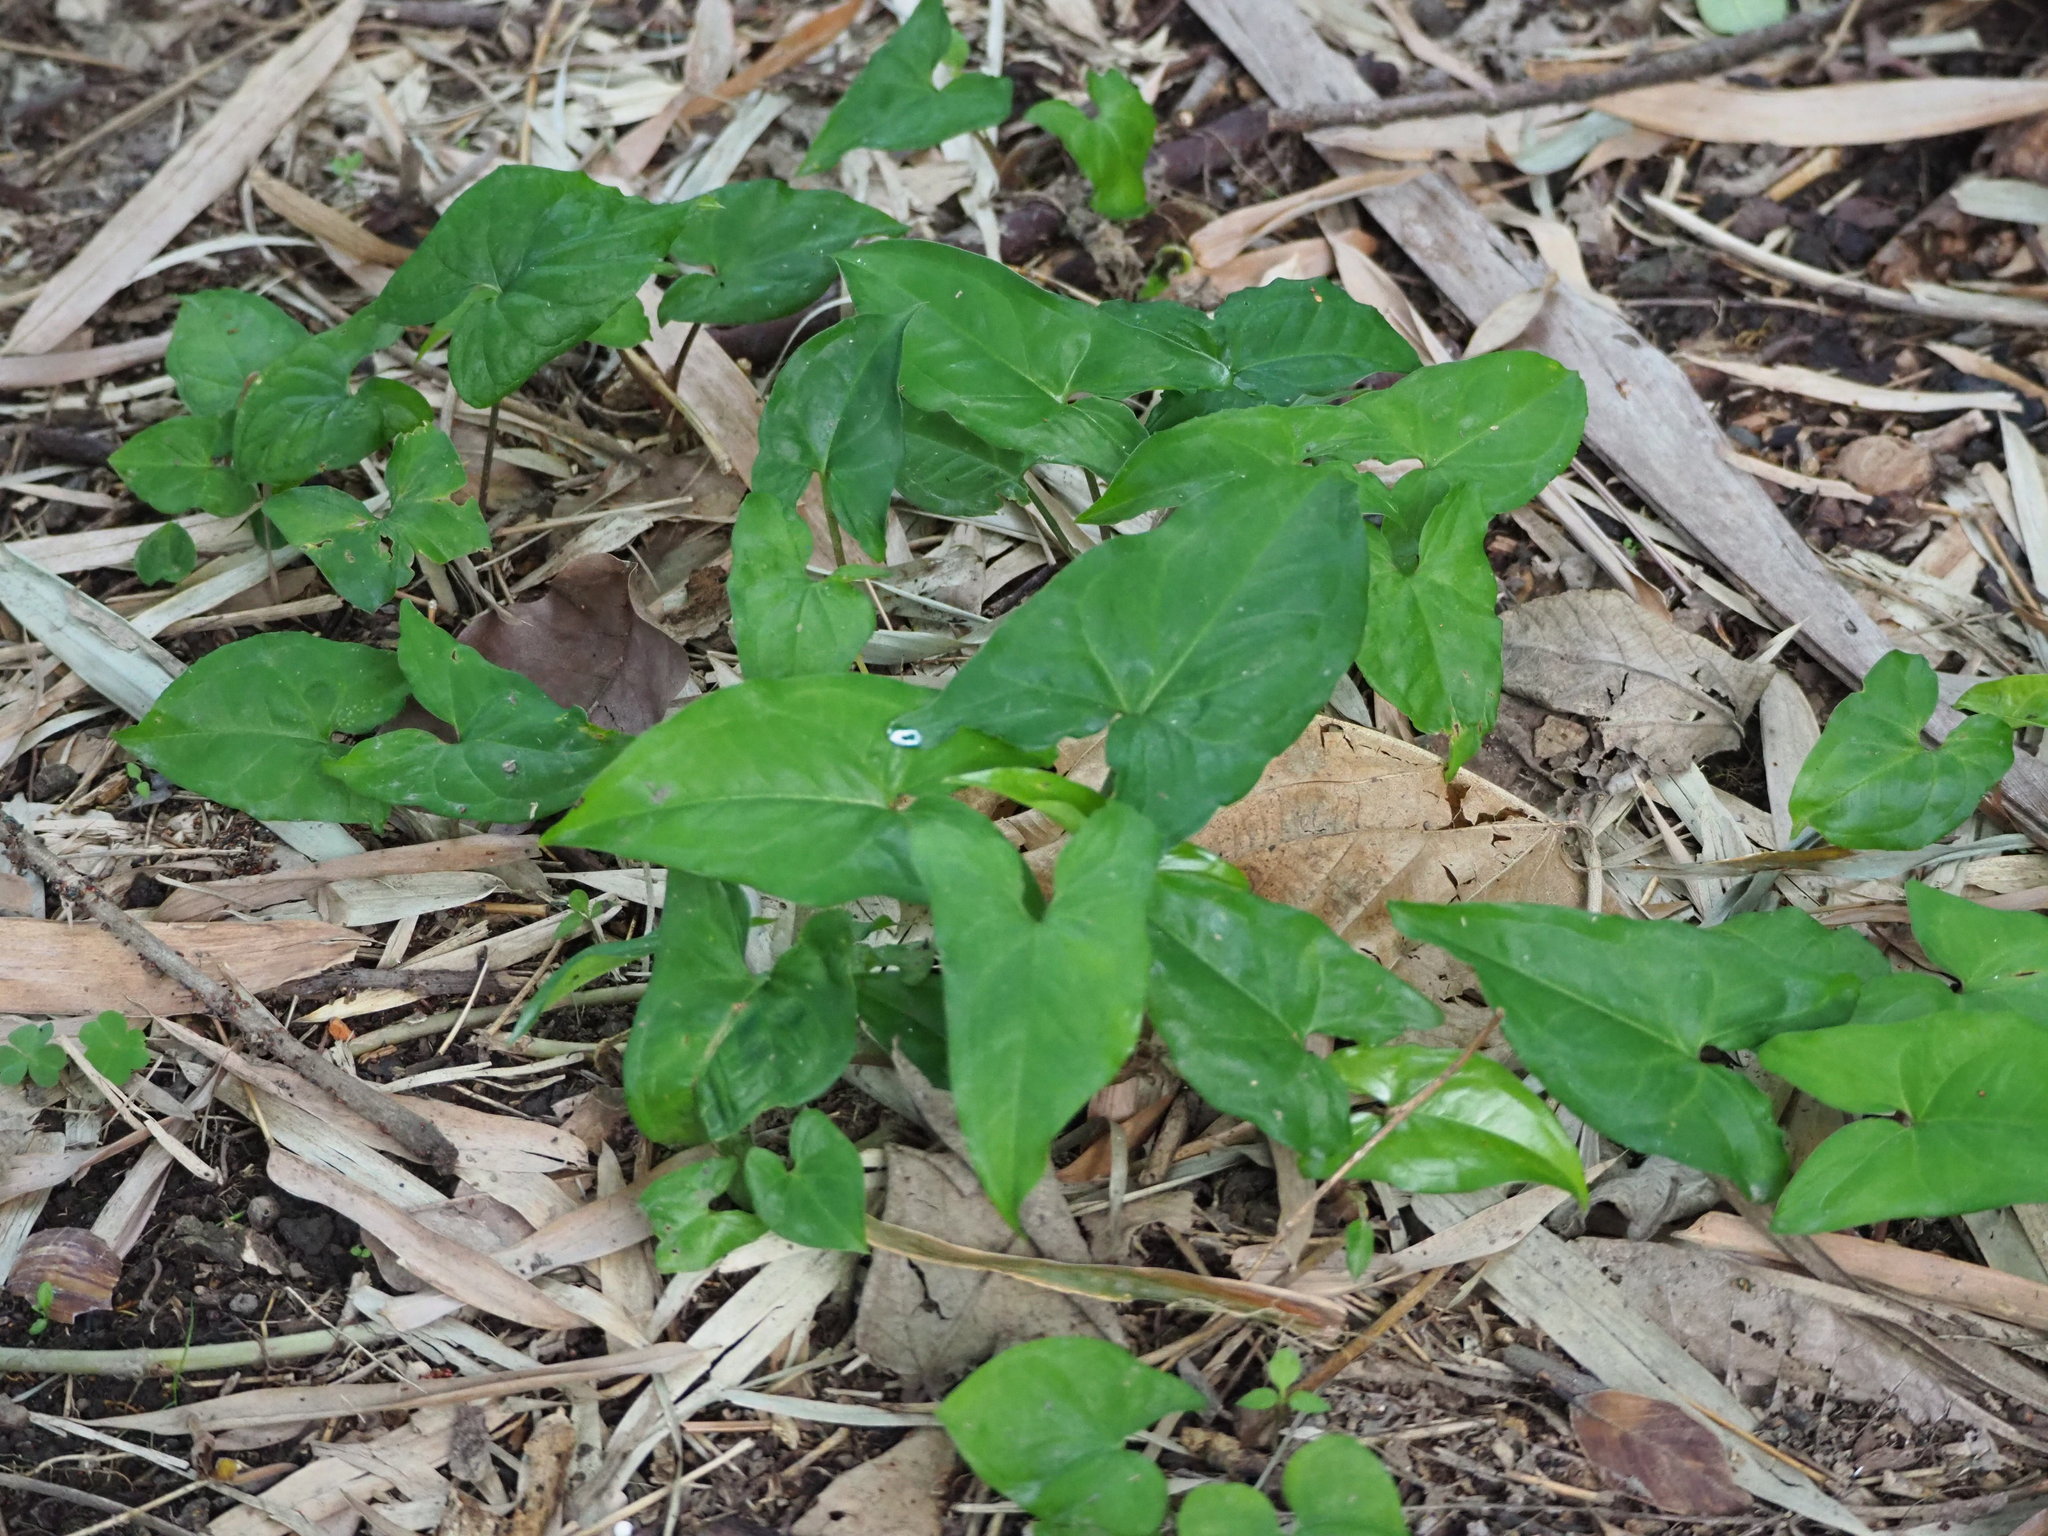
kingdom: Plantae
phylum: Tracheophyta
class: Liliopsida
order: Alismatales
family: Araceae
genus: Typhonium
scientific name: Typhonium blumei
